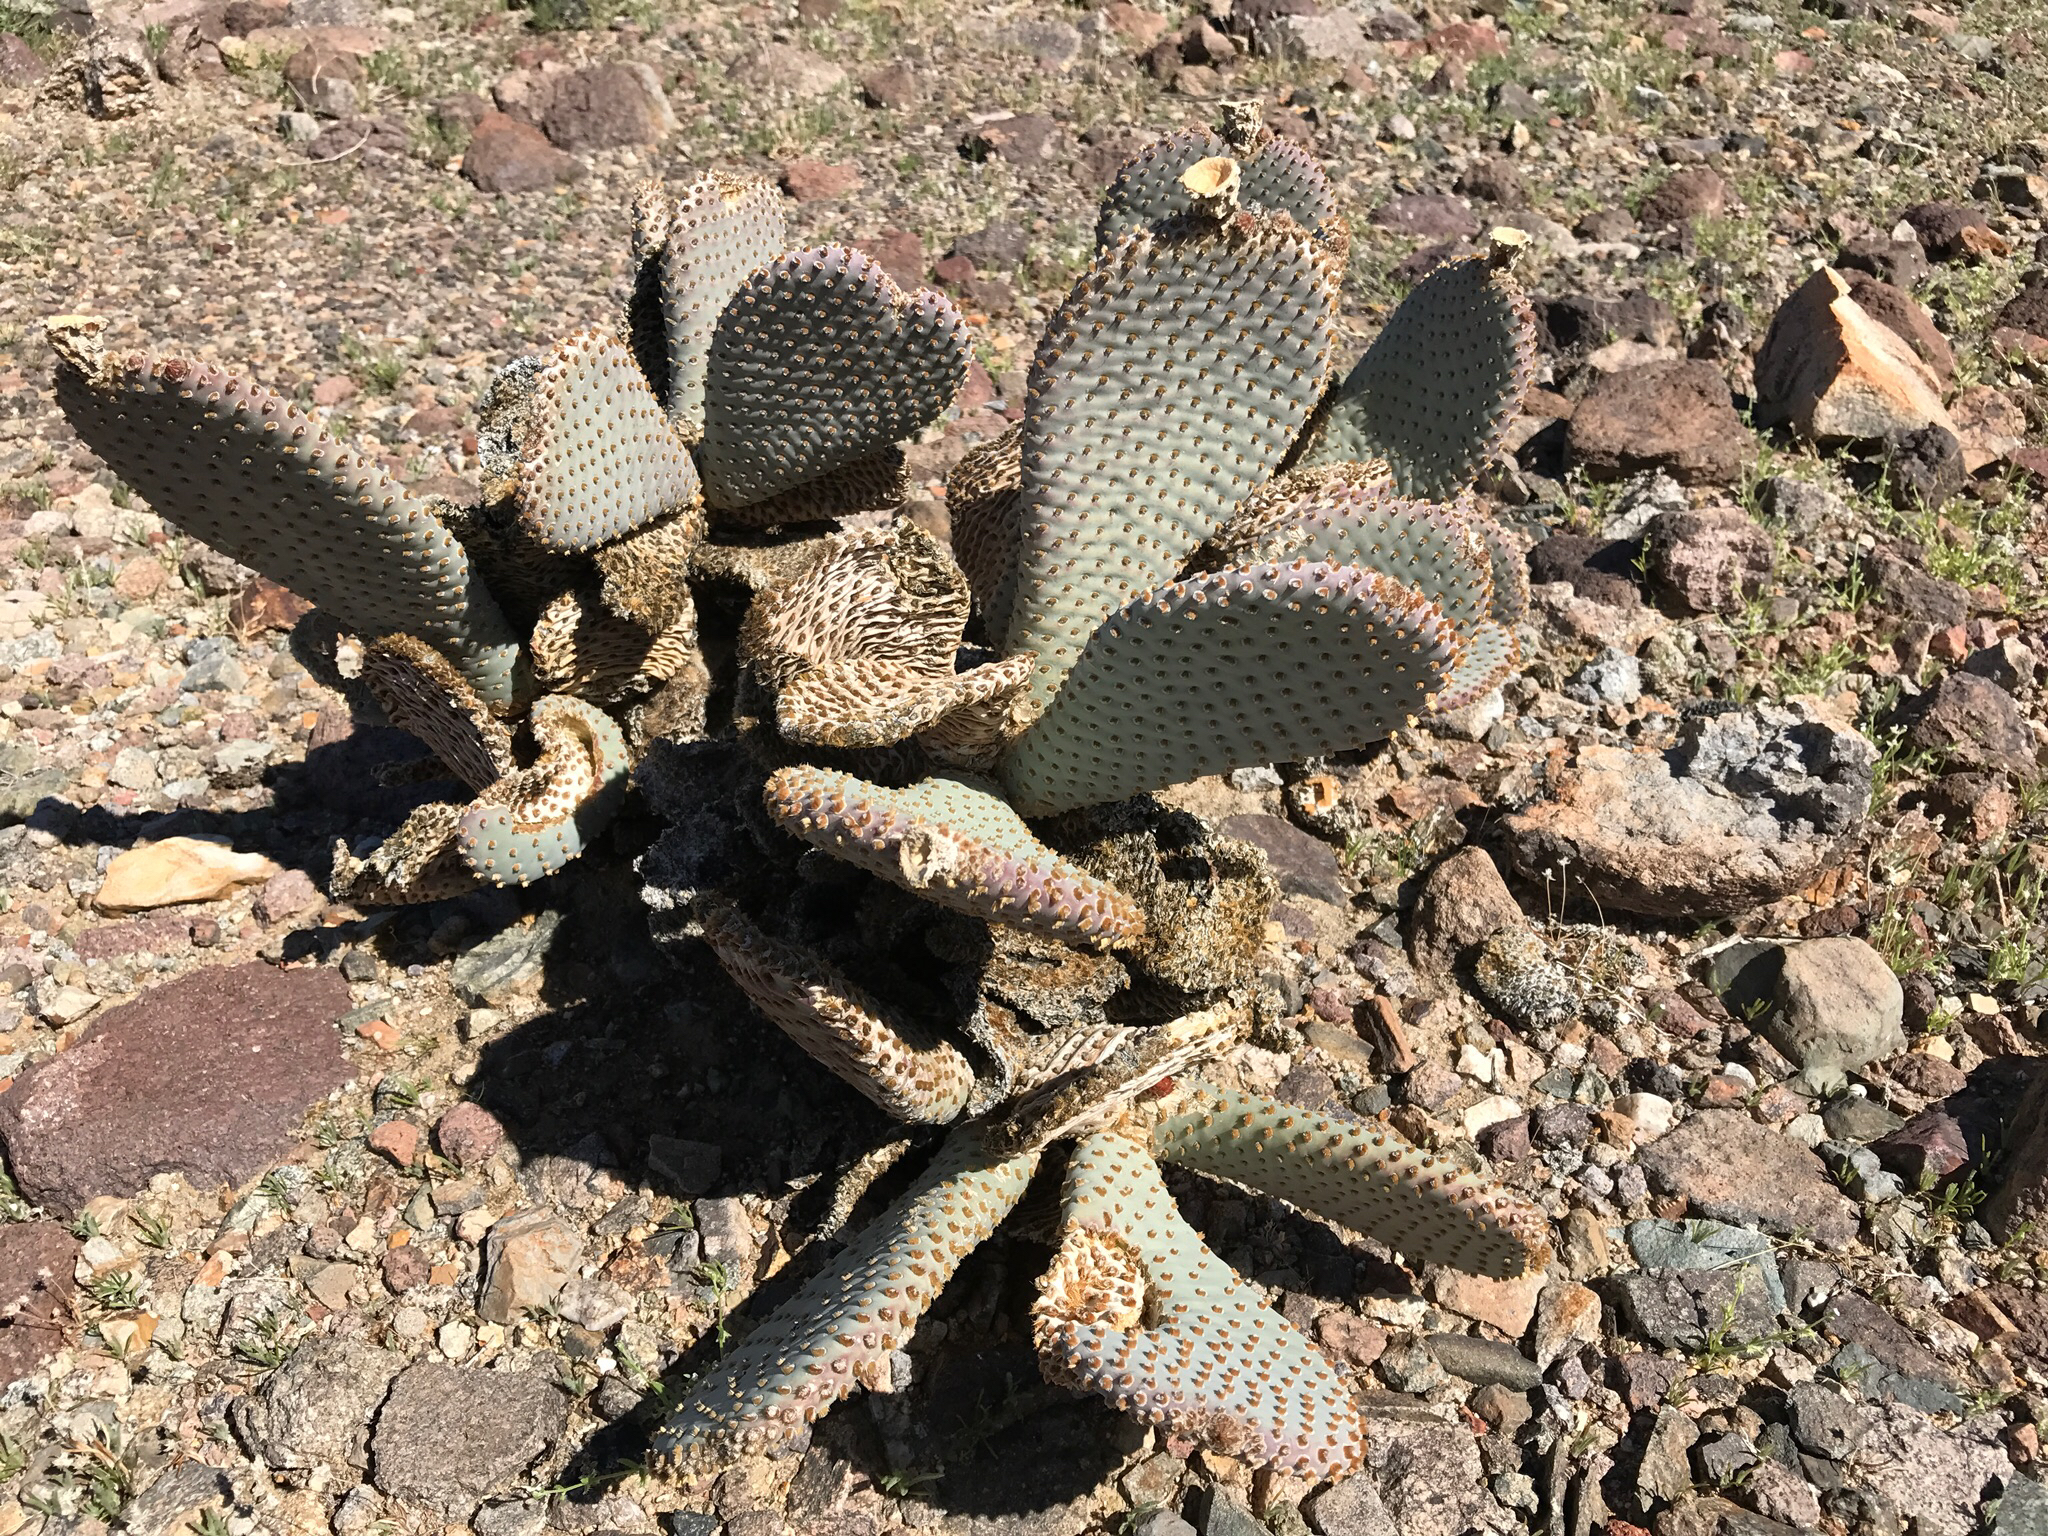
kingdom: Plantae
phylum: Tracheophyta
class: Magnoliopsida
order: Caryophyllales
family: Cactaceae
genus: Opuntia
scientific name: Opuntia basilaris
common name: Beavertail prickly-pear
